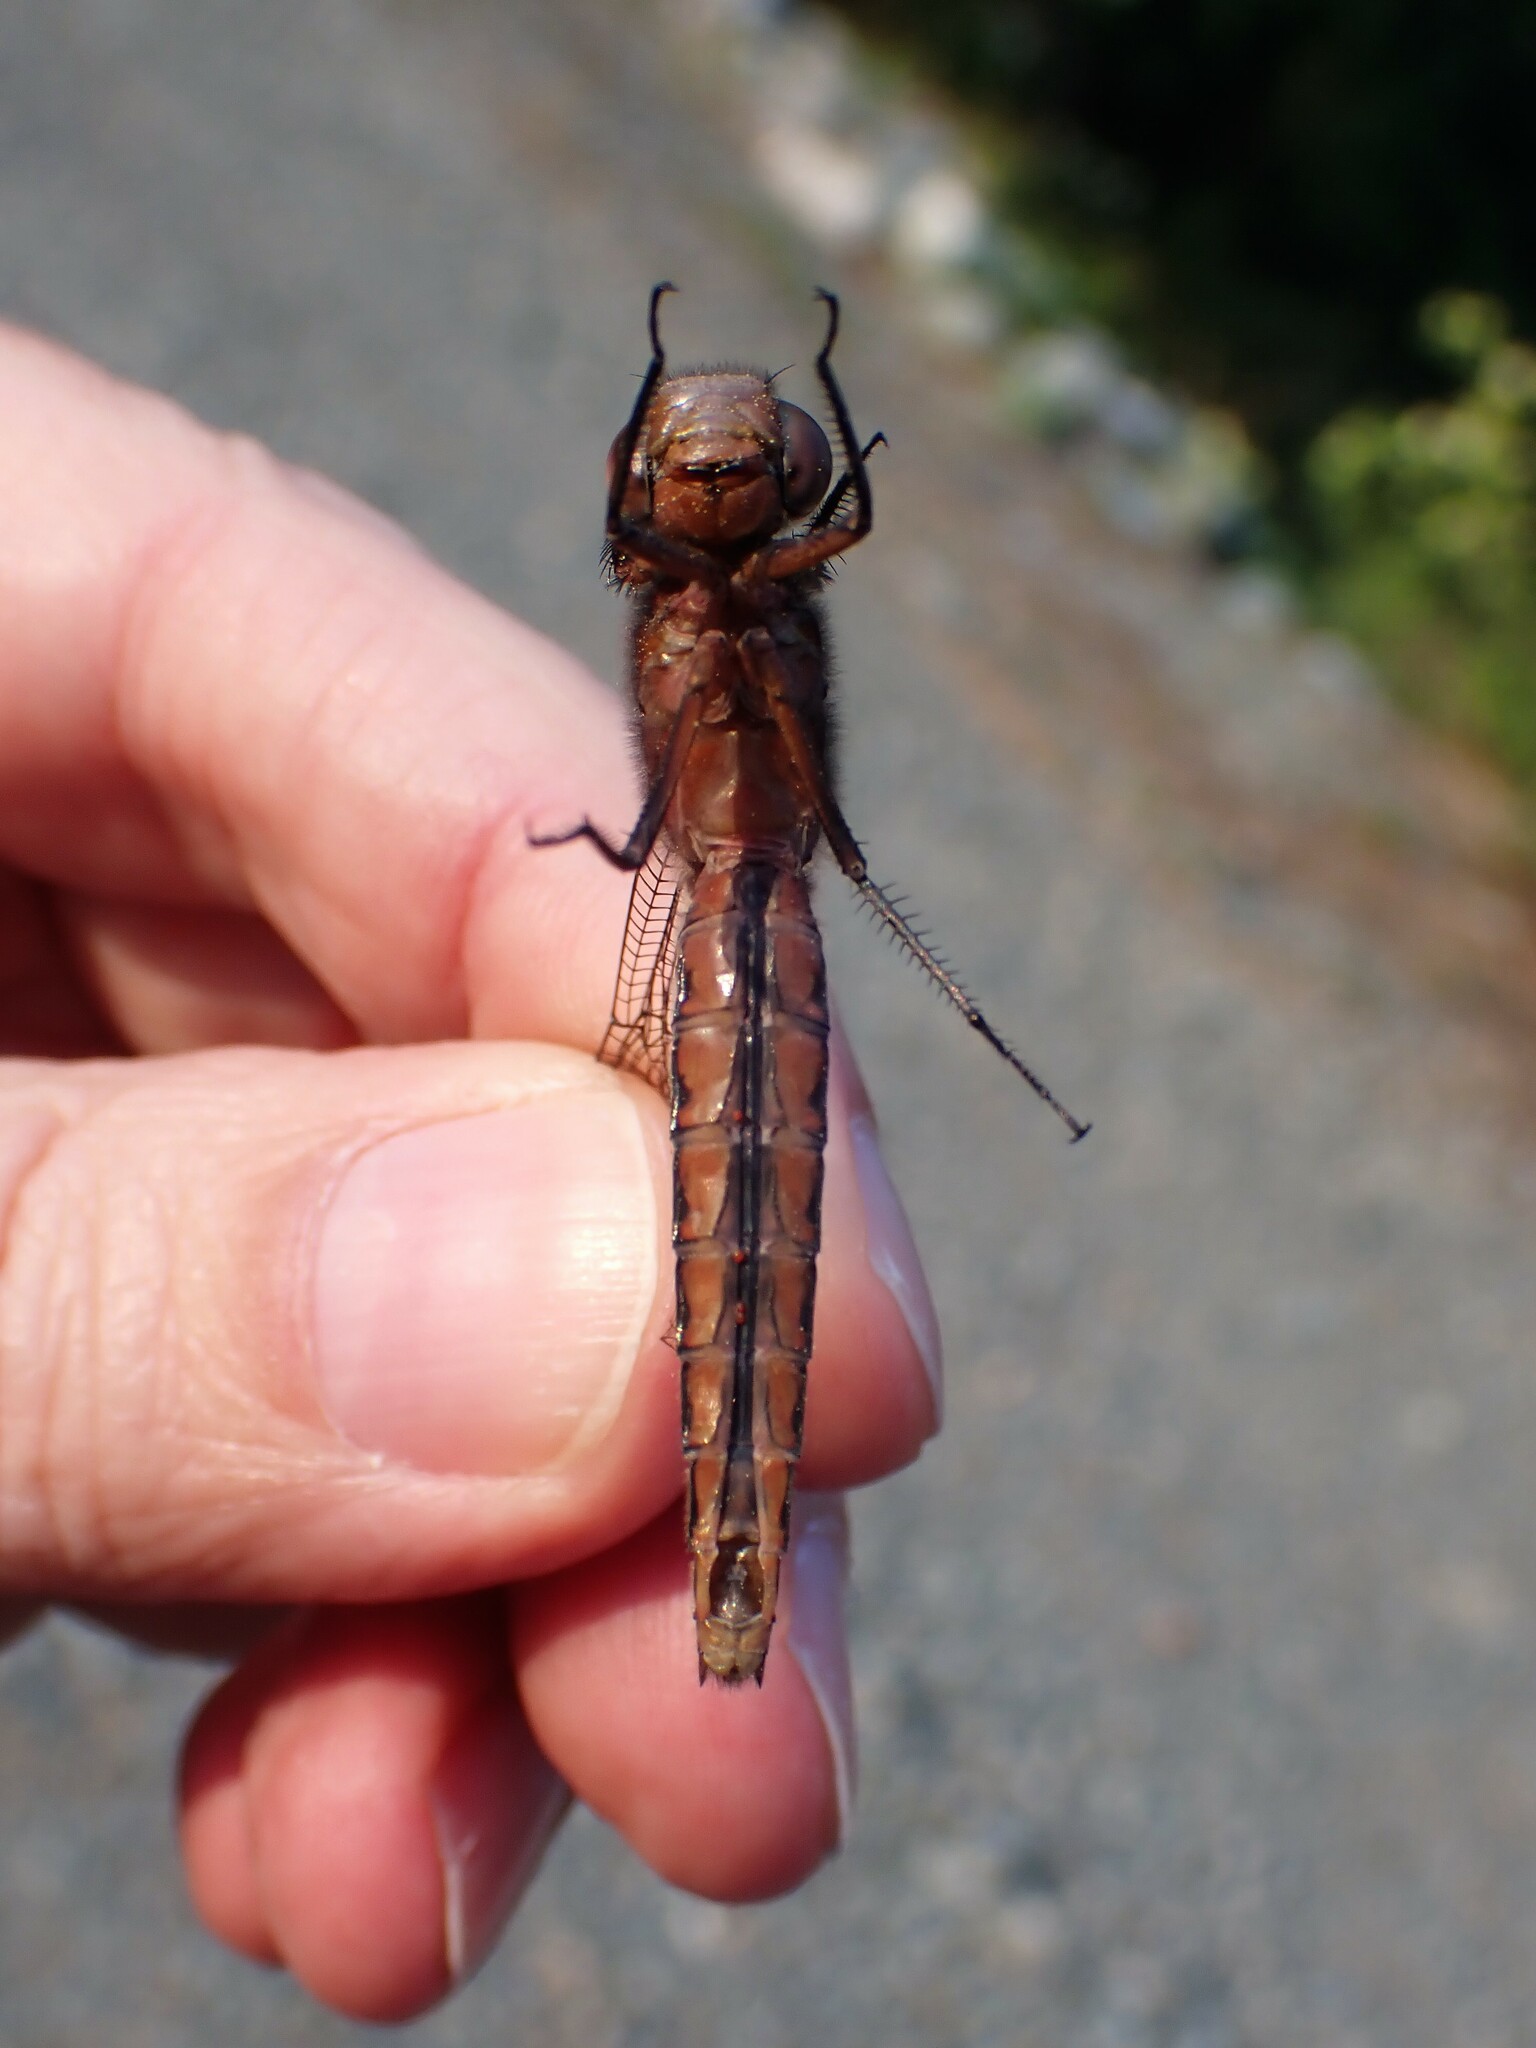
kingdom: Animalia
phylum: Arthropoda
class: Insecta
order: Odonata
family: Libellulidae
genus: Ladona
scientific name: Ladona julia
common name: Chalk-fronted corporal
